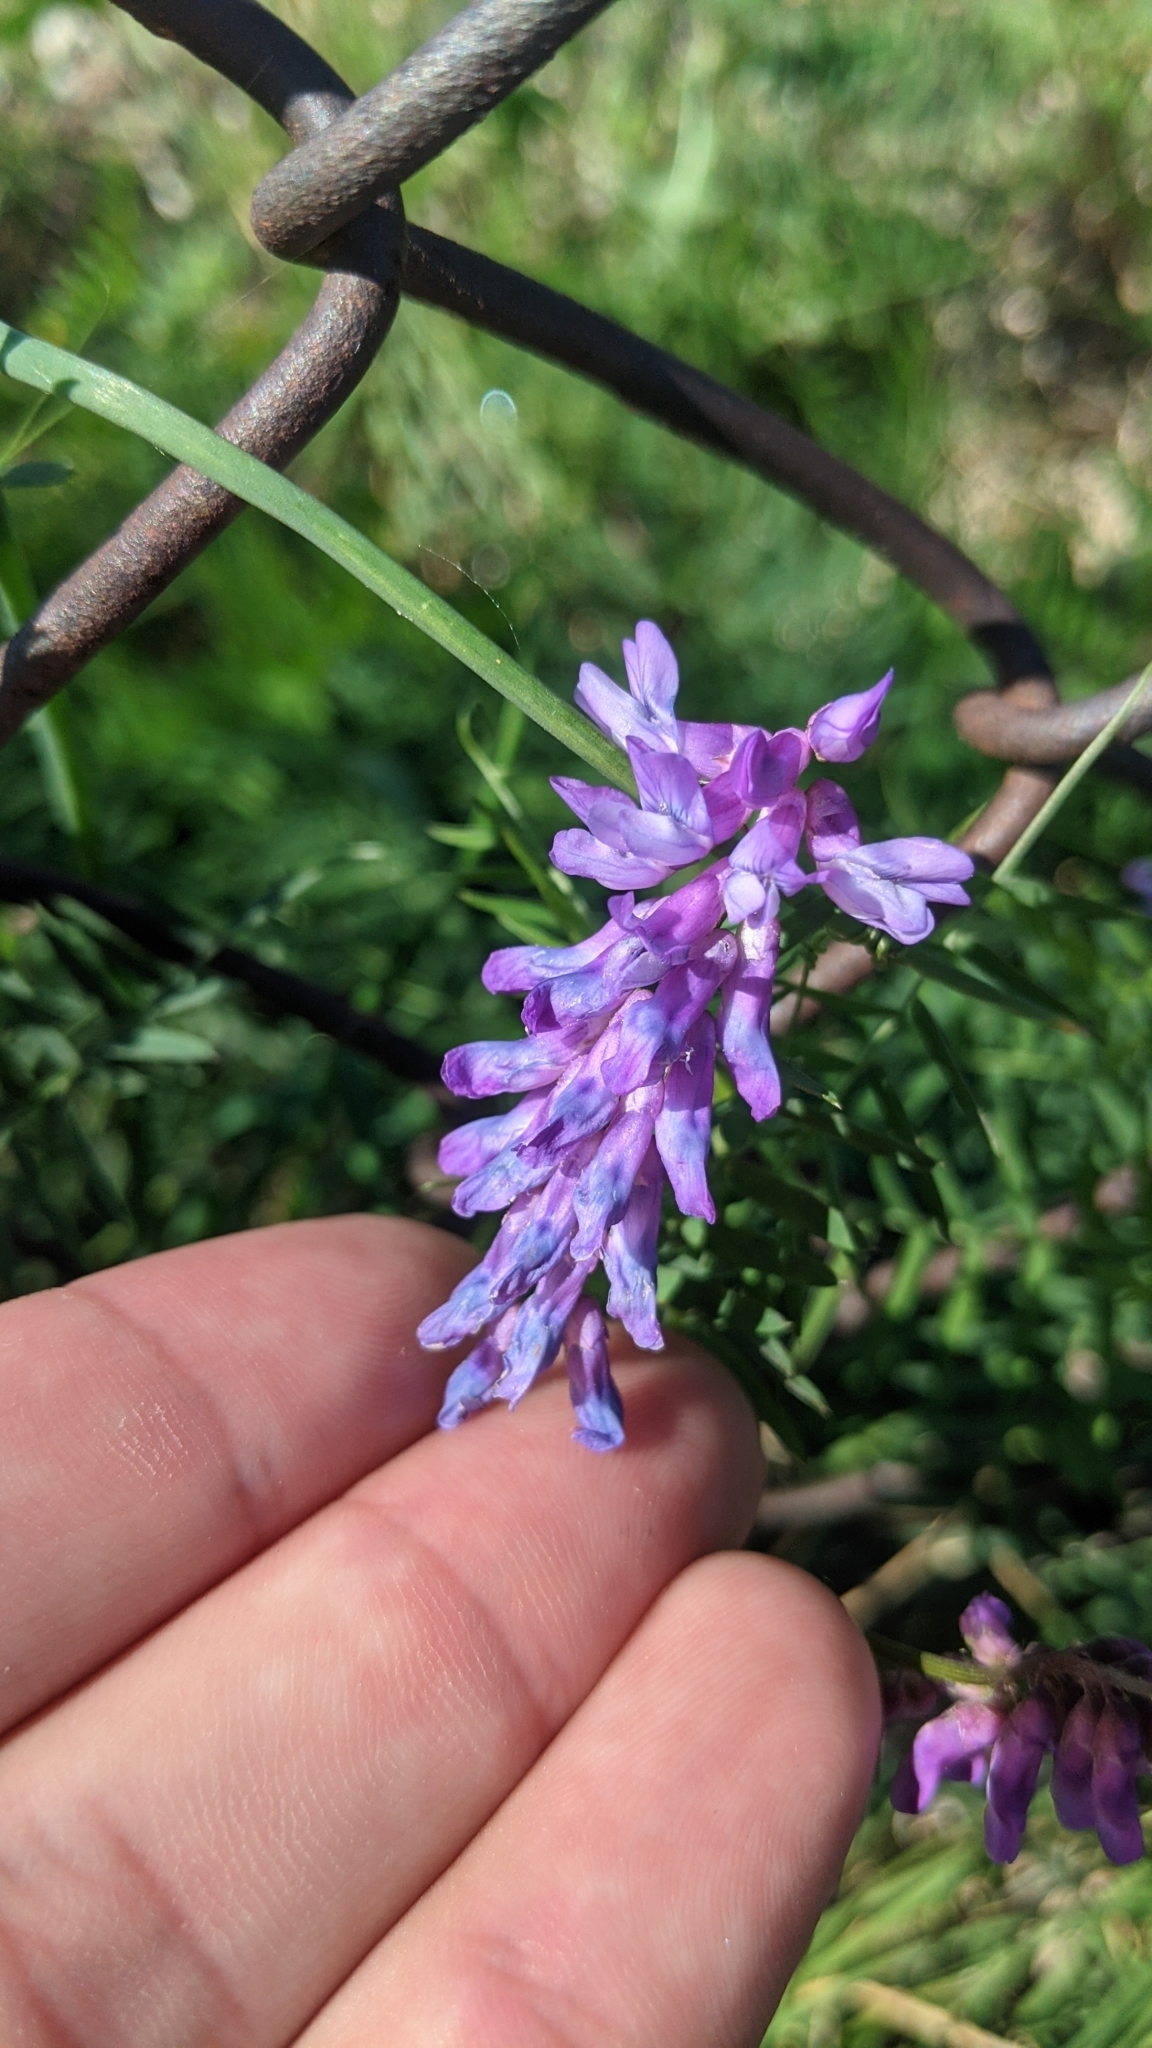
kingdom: Plantae
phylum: Tracheophyta
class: Magnoliopsida
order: Fabales
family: Fabaceae
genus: Vicia
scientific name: Vicia cracca
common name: Bird vetch
